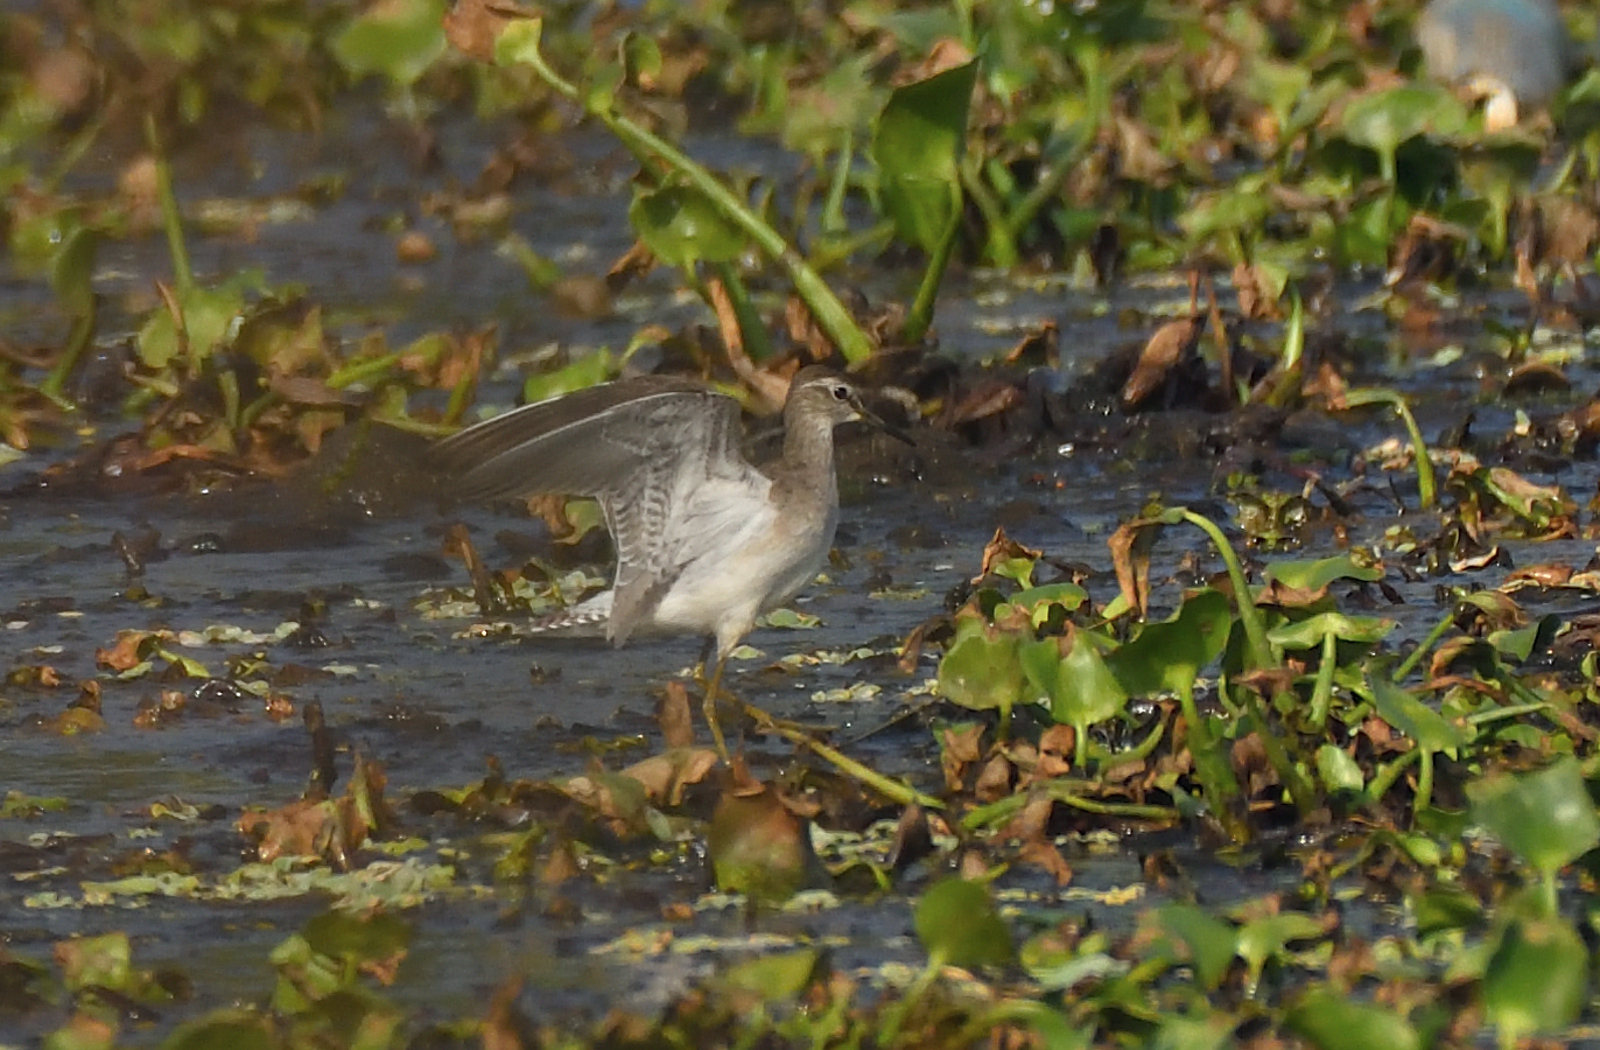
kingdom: Animalia
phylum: Chordata
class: Aves
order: Charadriiformes
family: Scolopacidae
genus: Tringa
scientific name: Tringa glareola
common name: Wood sandpiper
